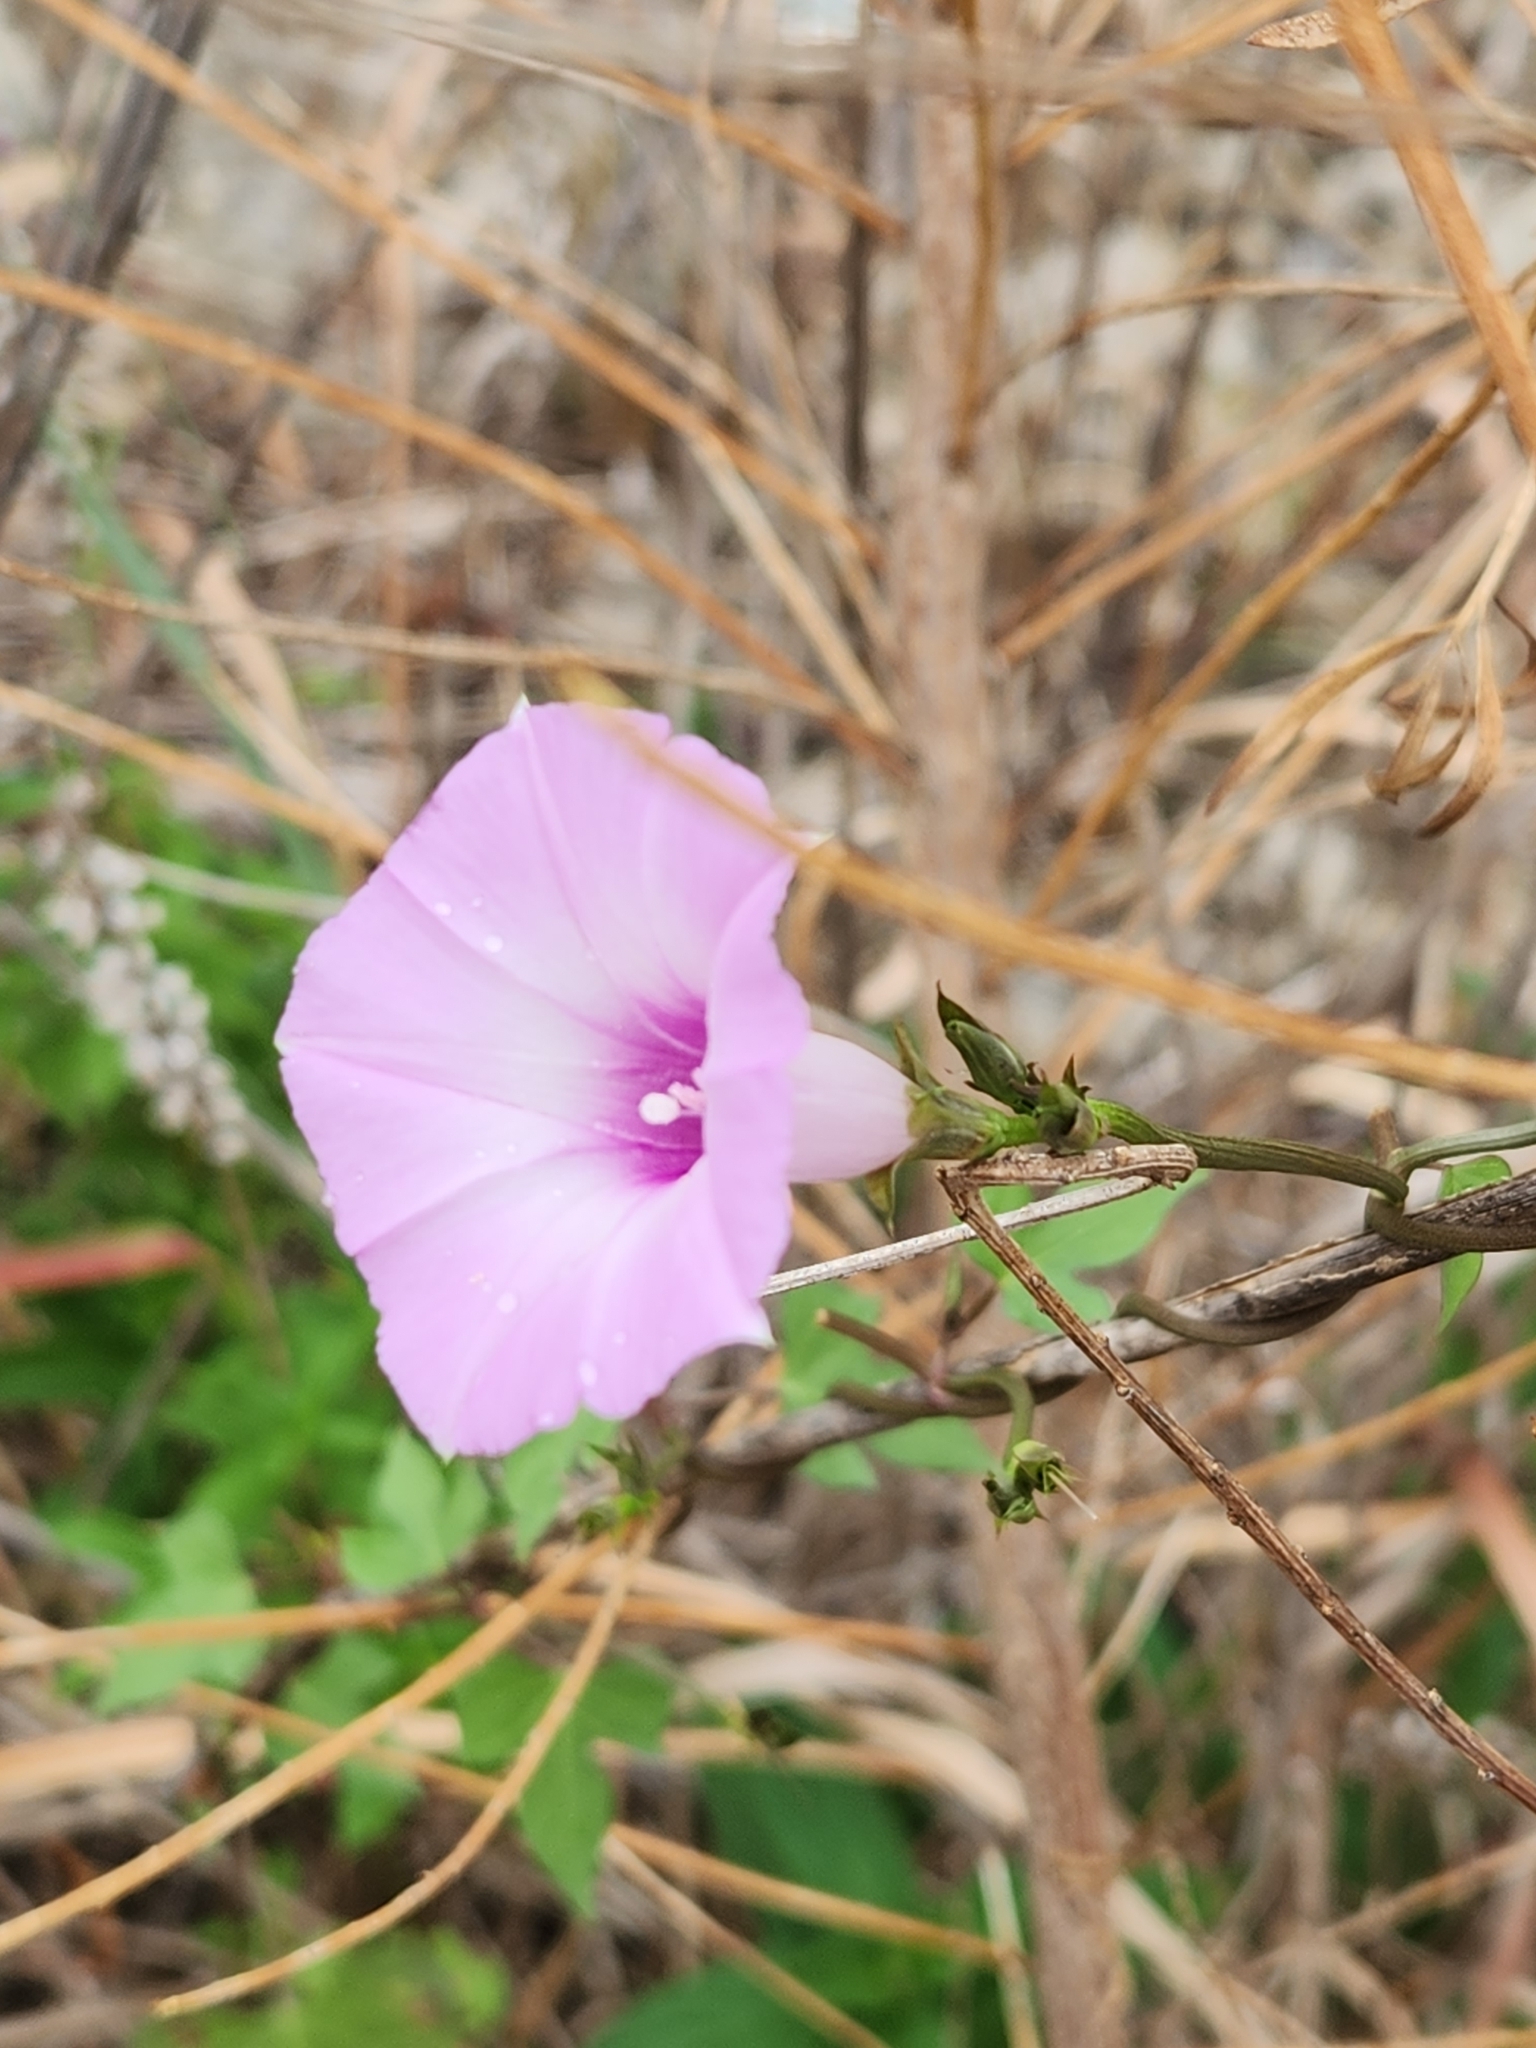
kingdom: Plantae
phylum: Tracheophyta
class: Magnoliopsida
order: Solanales
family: Convolvulaceae
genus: Ipomoea
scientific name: Ipomoea cordatotriloba
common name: Cotton morning glory
